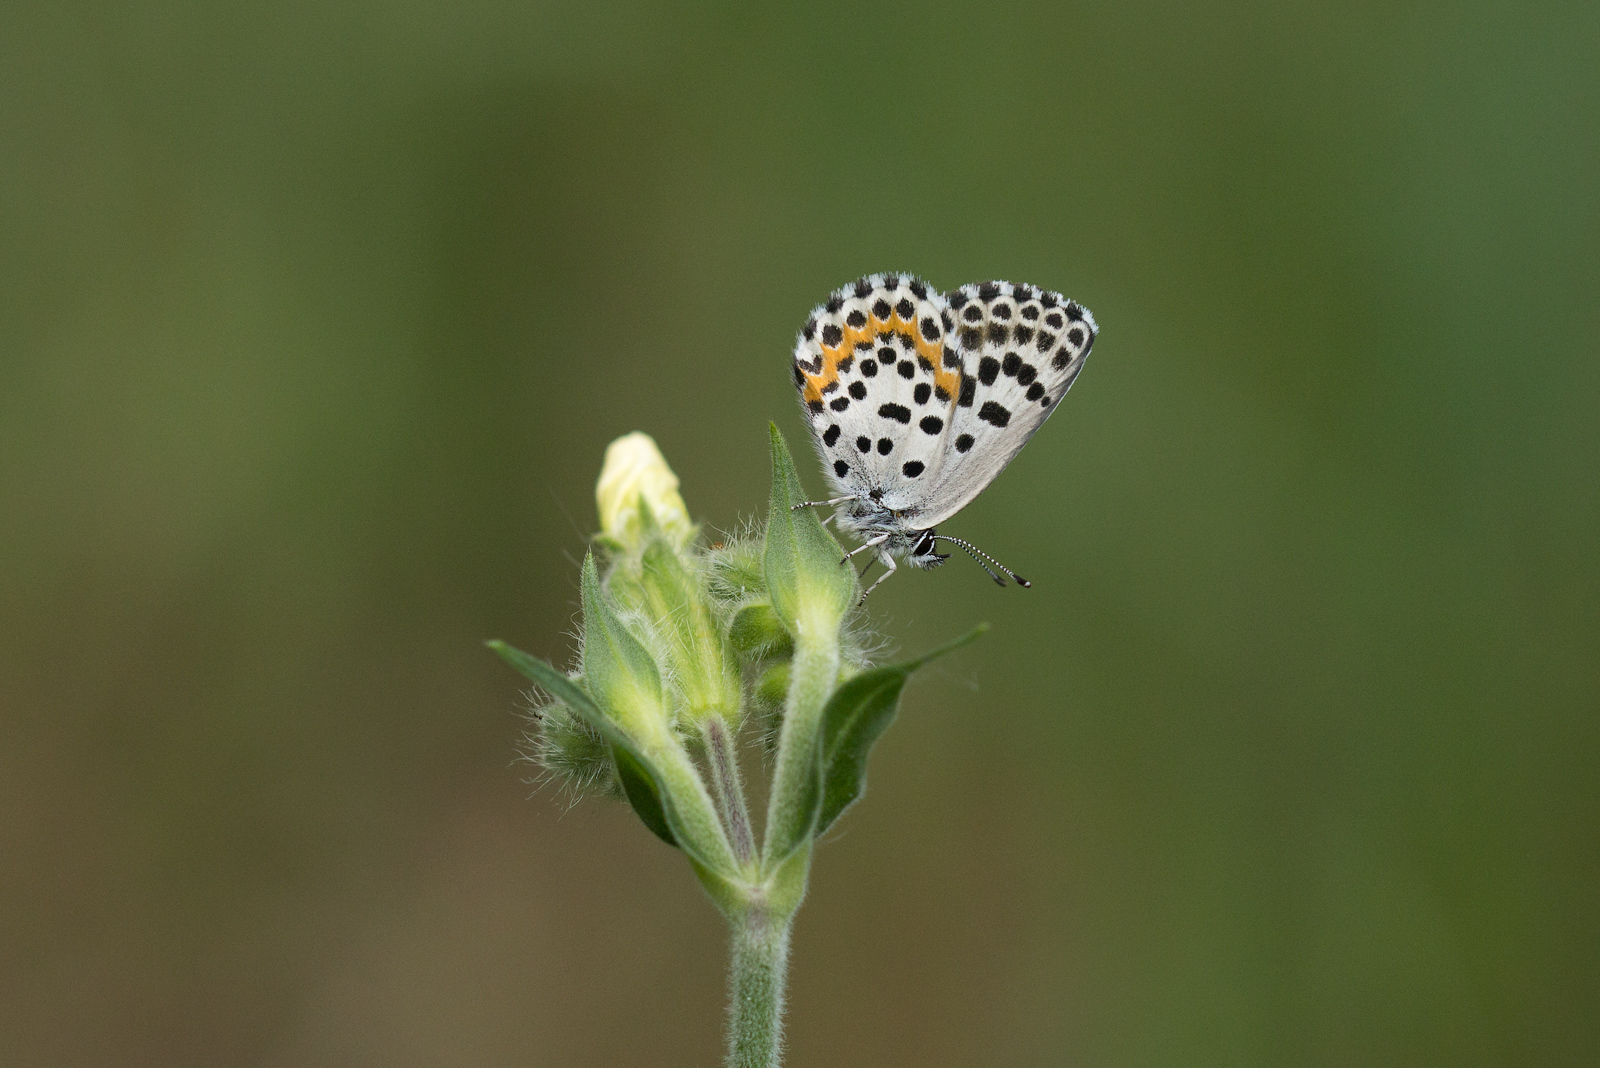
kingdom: Animalia
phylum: Arthropoda
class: Insecta
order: Lepidoptera
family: Lycaenidae
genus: Scolitantides
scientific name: Scolitantides orion
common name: Chequered blue
